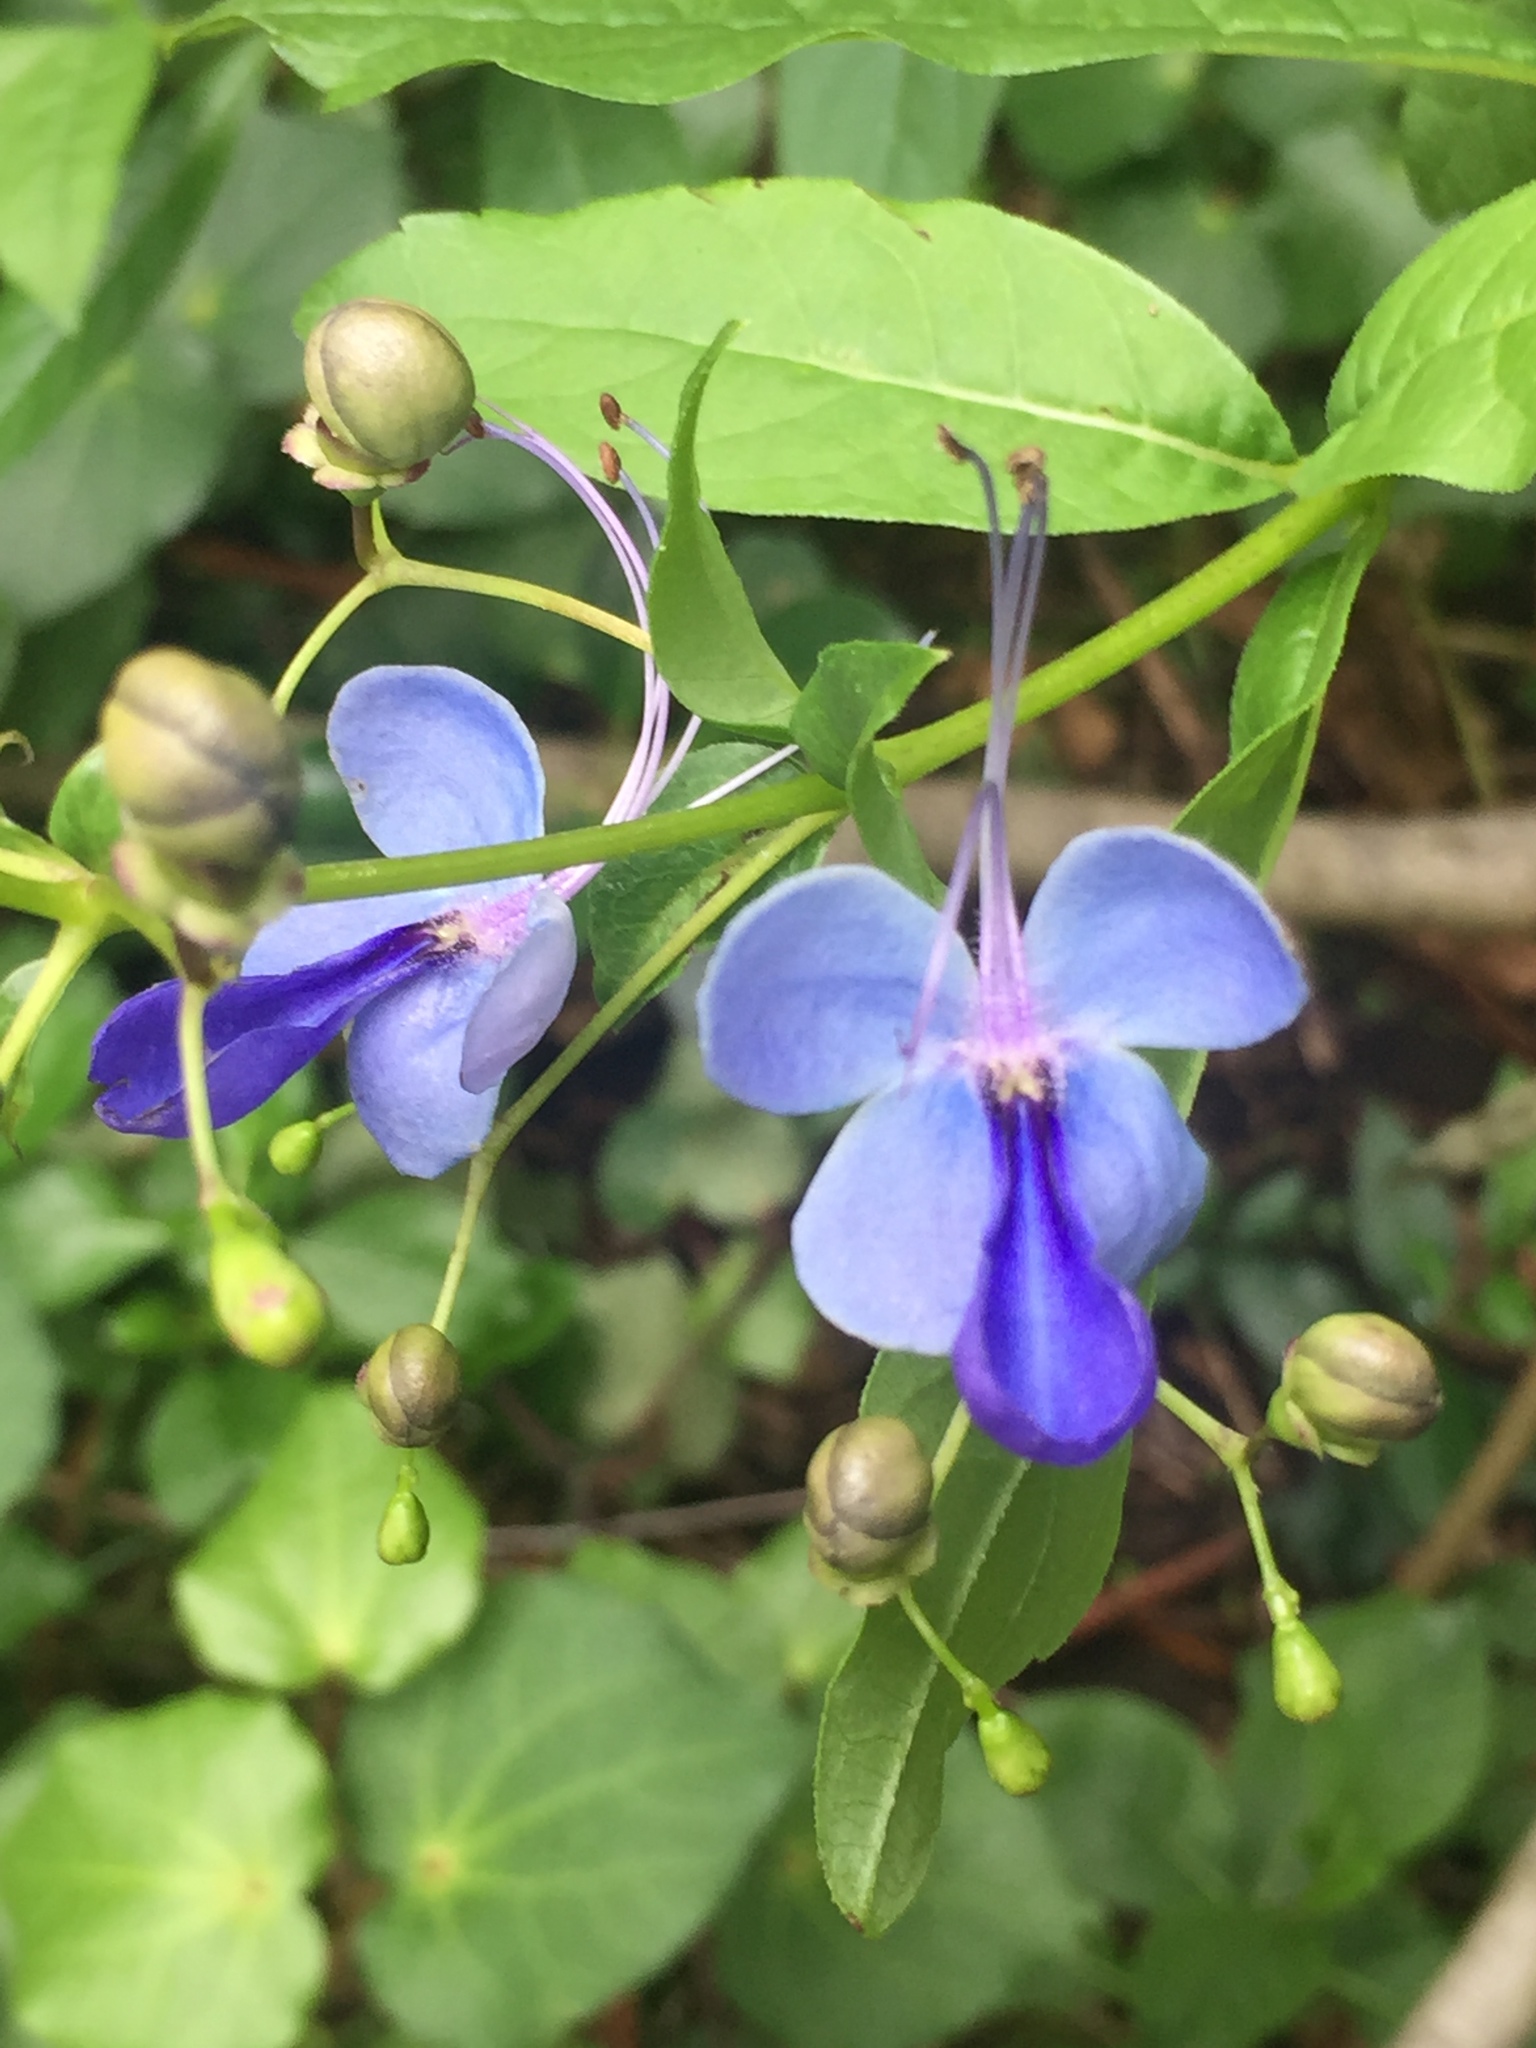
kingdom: Plantae
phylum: Tracheophyta
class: Magnoliopsida
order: Lamiales
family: Lamiaceae
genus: Rotheca
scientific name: Rotheca myricoides
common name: Cats-whiskers
